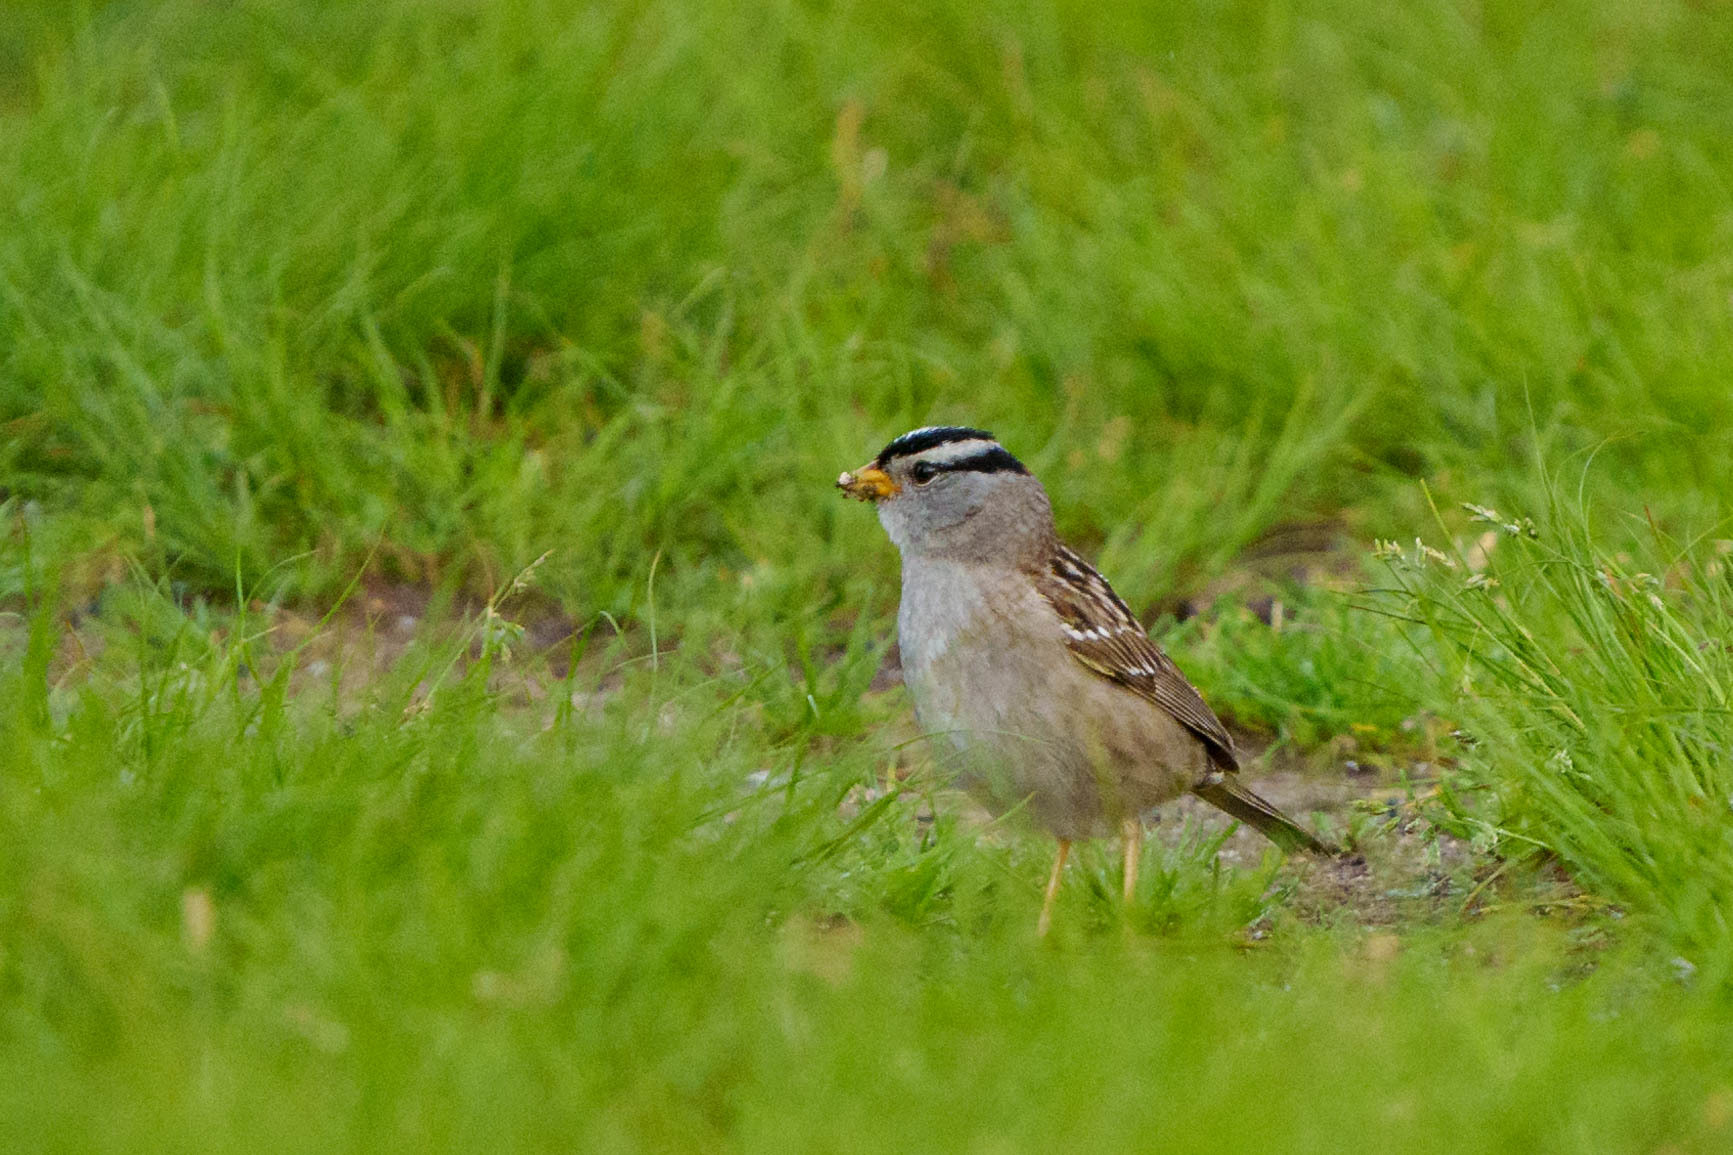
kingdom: Animalia
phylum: Chordata
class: Aves
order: Passeriformes
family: Passerellidae
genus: Zonotrichia
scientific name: Zonotrichia leucophrys
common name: White-crowned sparrow
